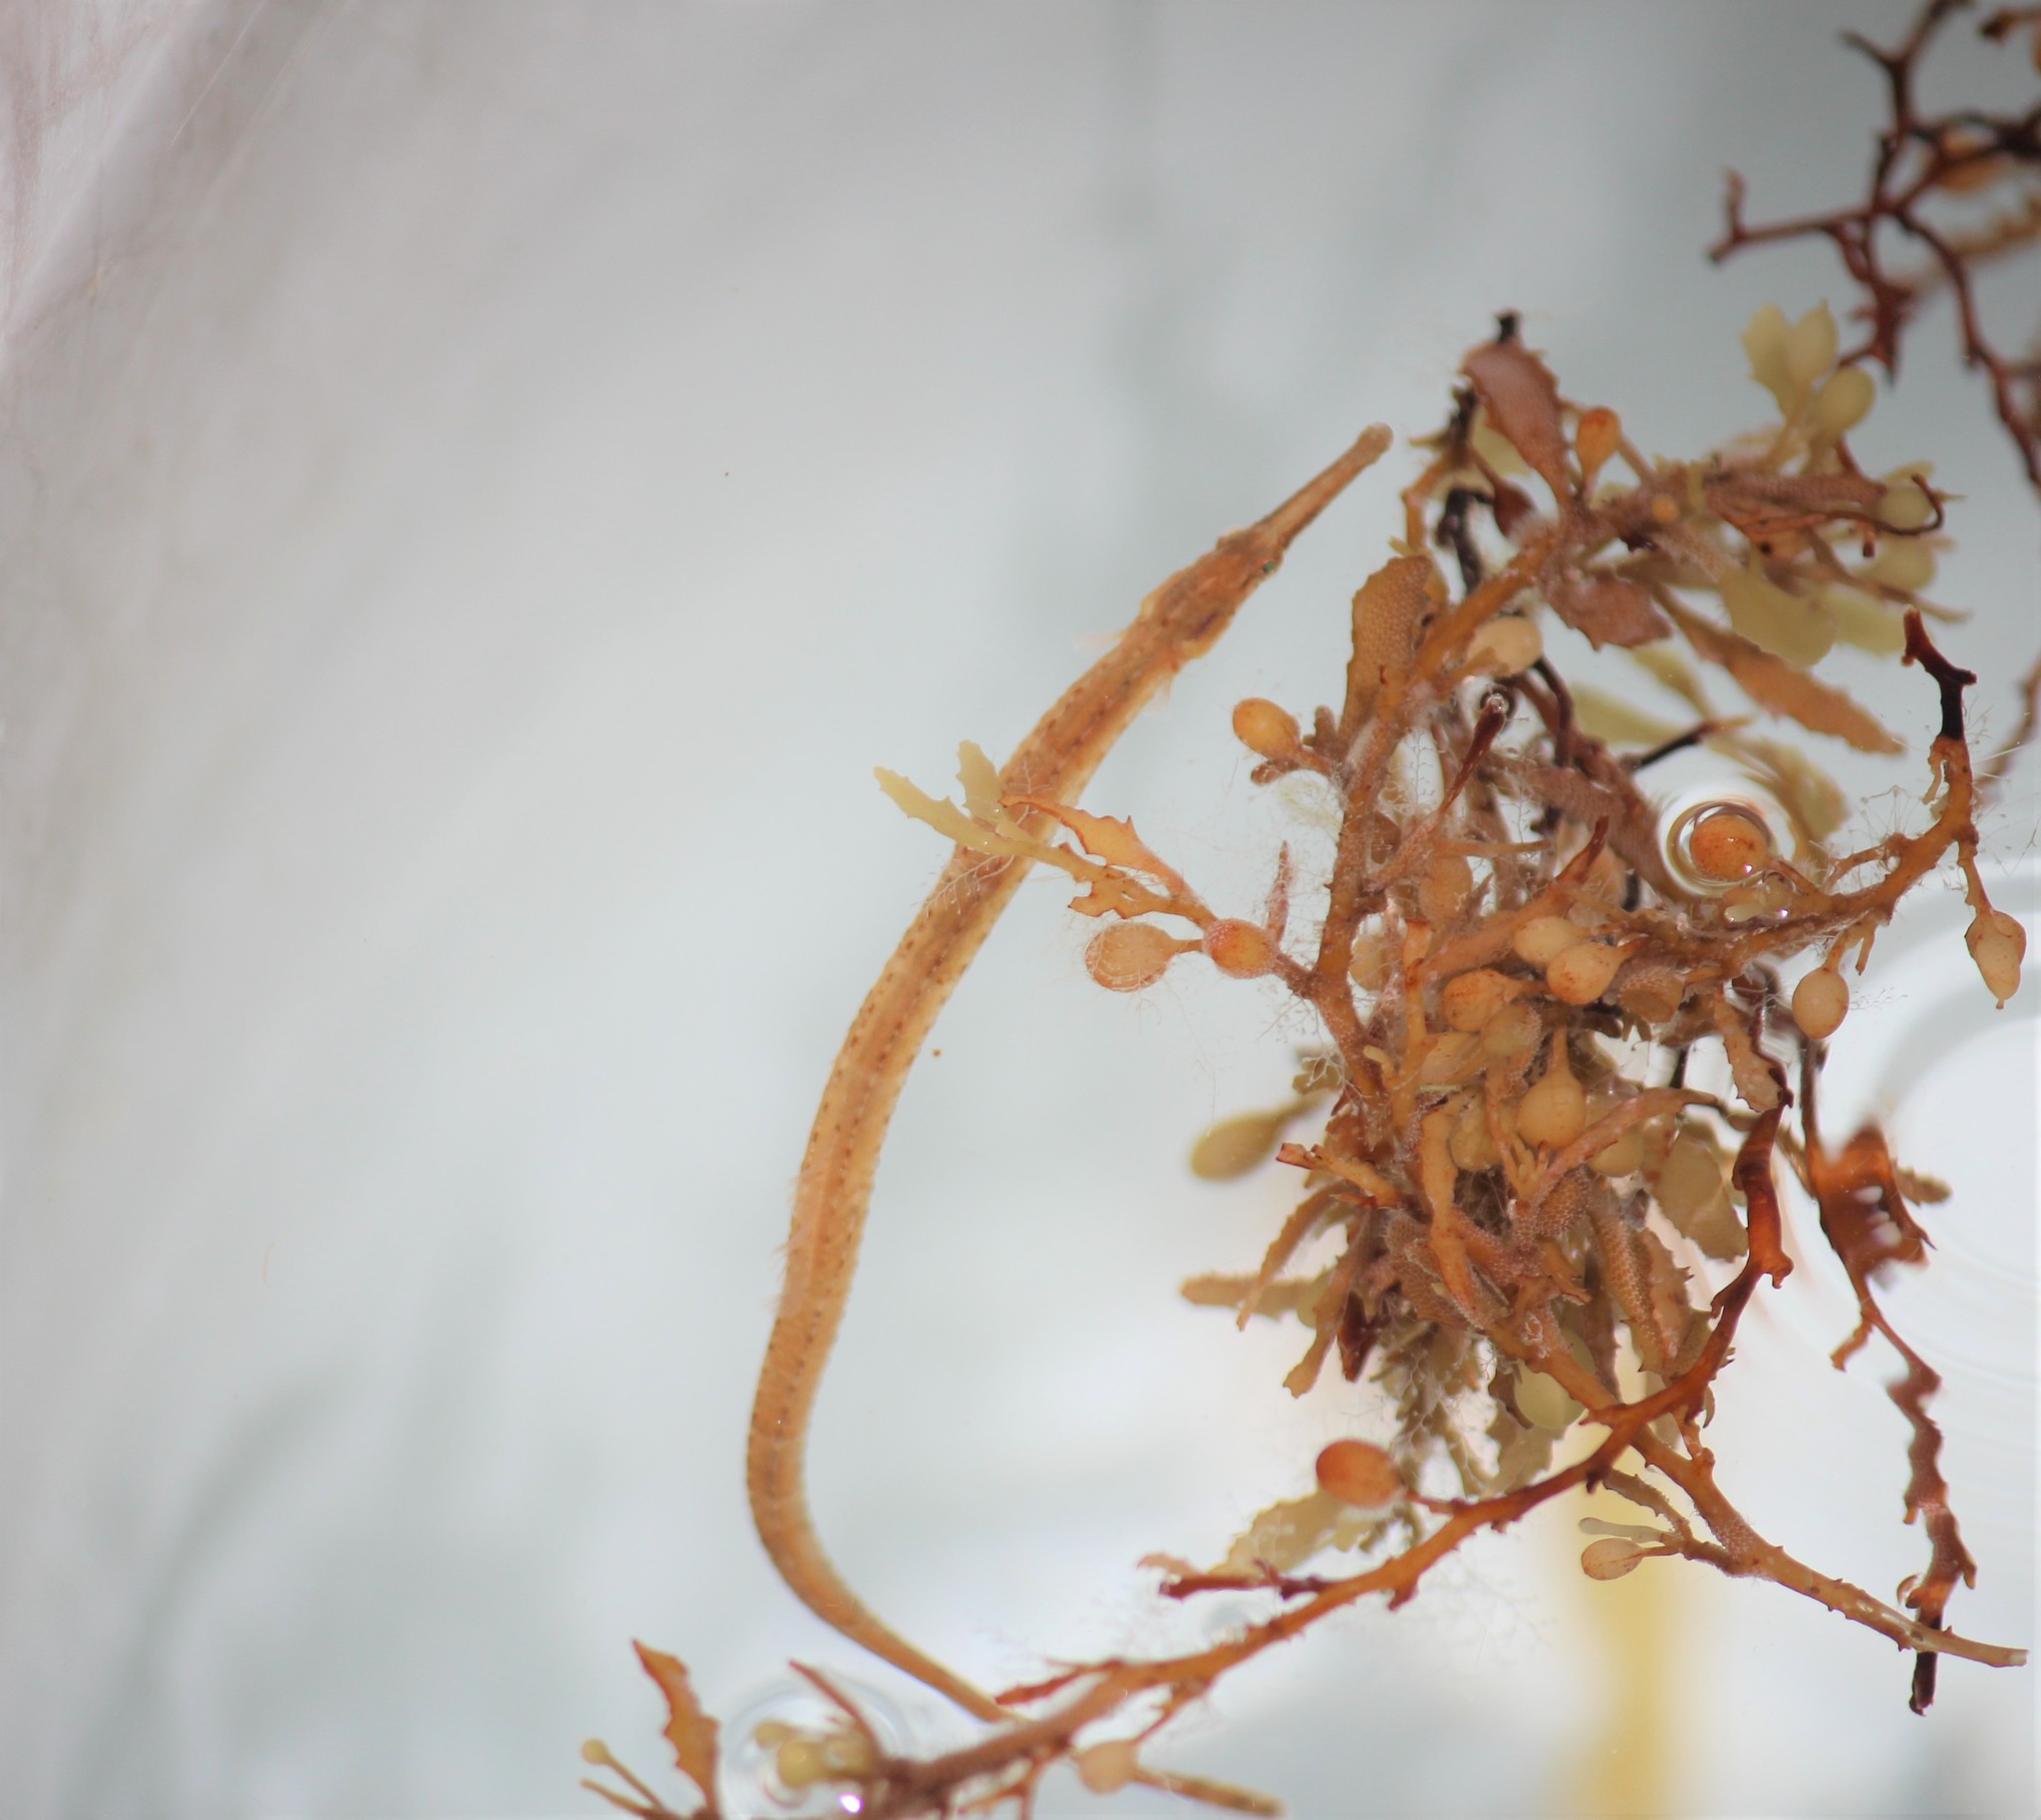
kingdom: Animalia
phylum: Chordata
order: Syngnathiformes
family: Syngnathidae
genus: Syngnathus
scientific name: Syngnathus pelagicus
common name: Sargassum pipefish
